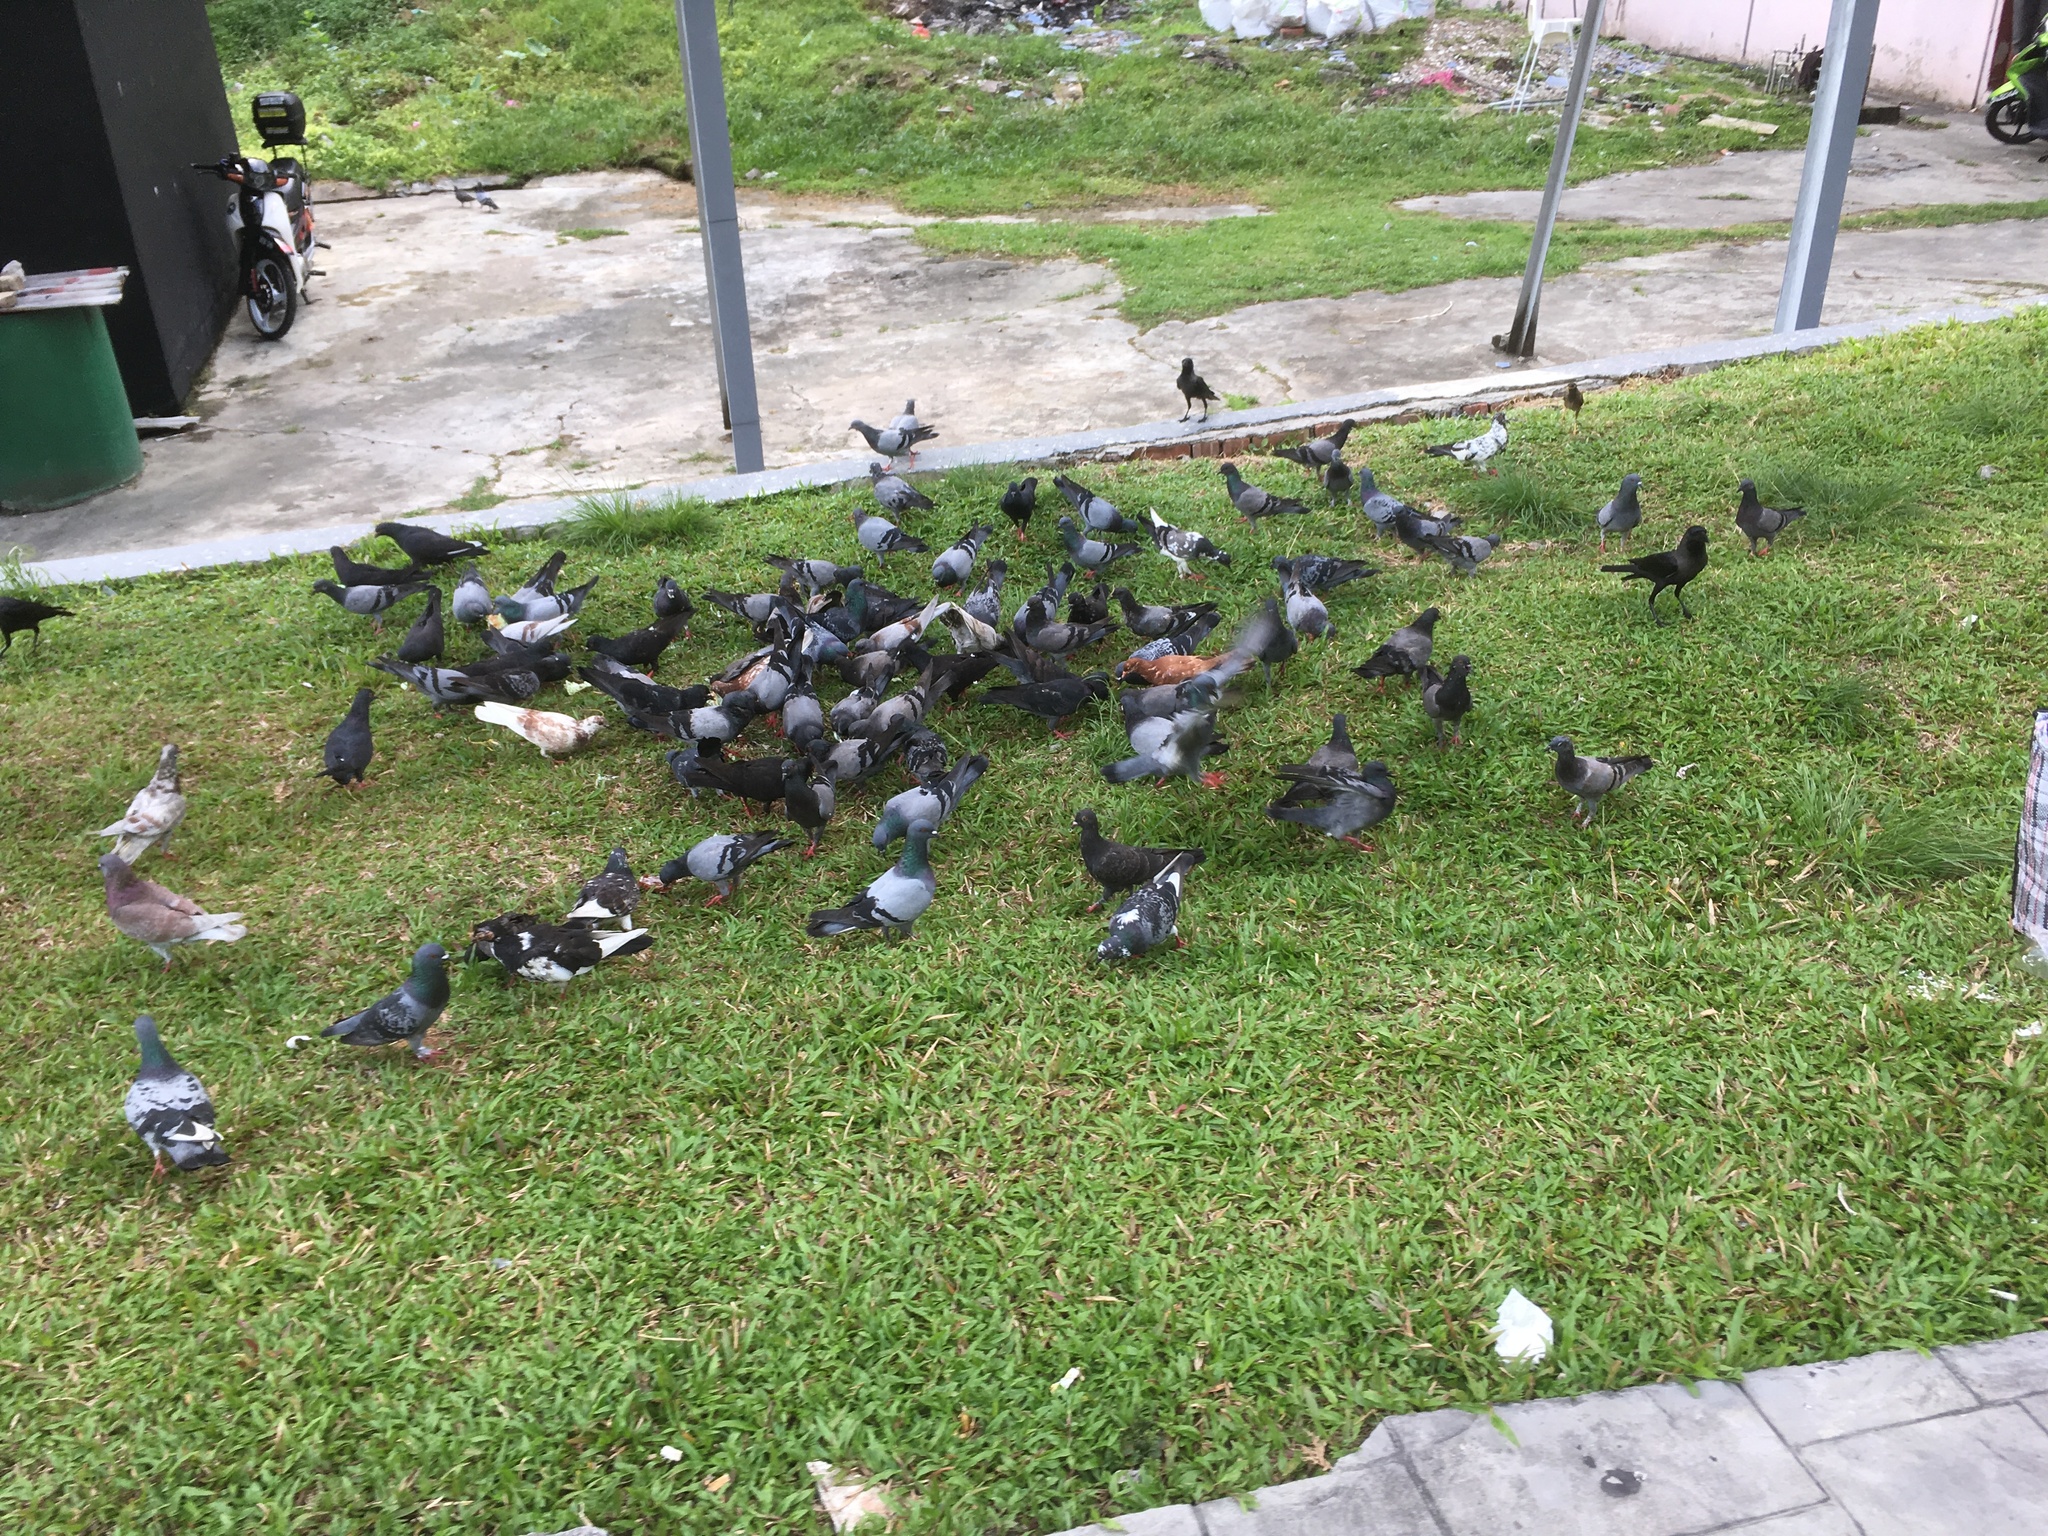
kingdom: Animalia
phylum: Chordata
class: Aves
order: Columbiformes
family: Columbidae
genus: Columba
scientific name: Columba livia
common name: Rock pigeon
